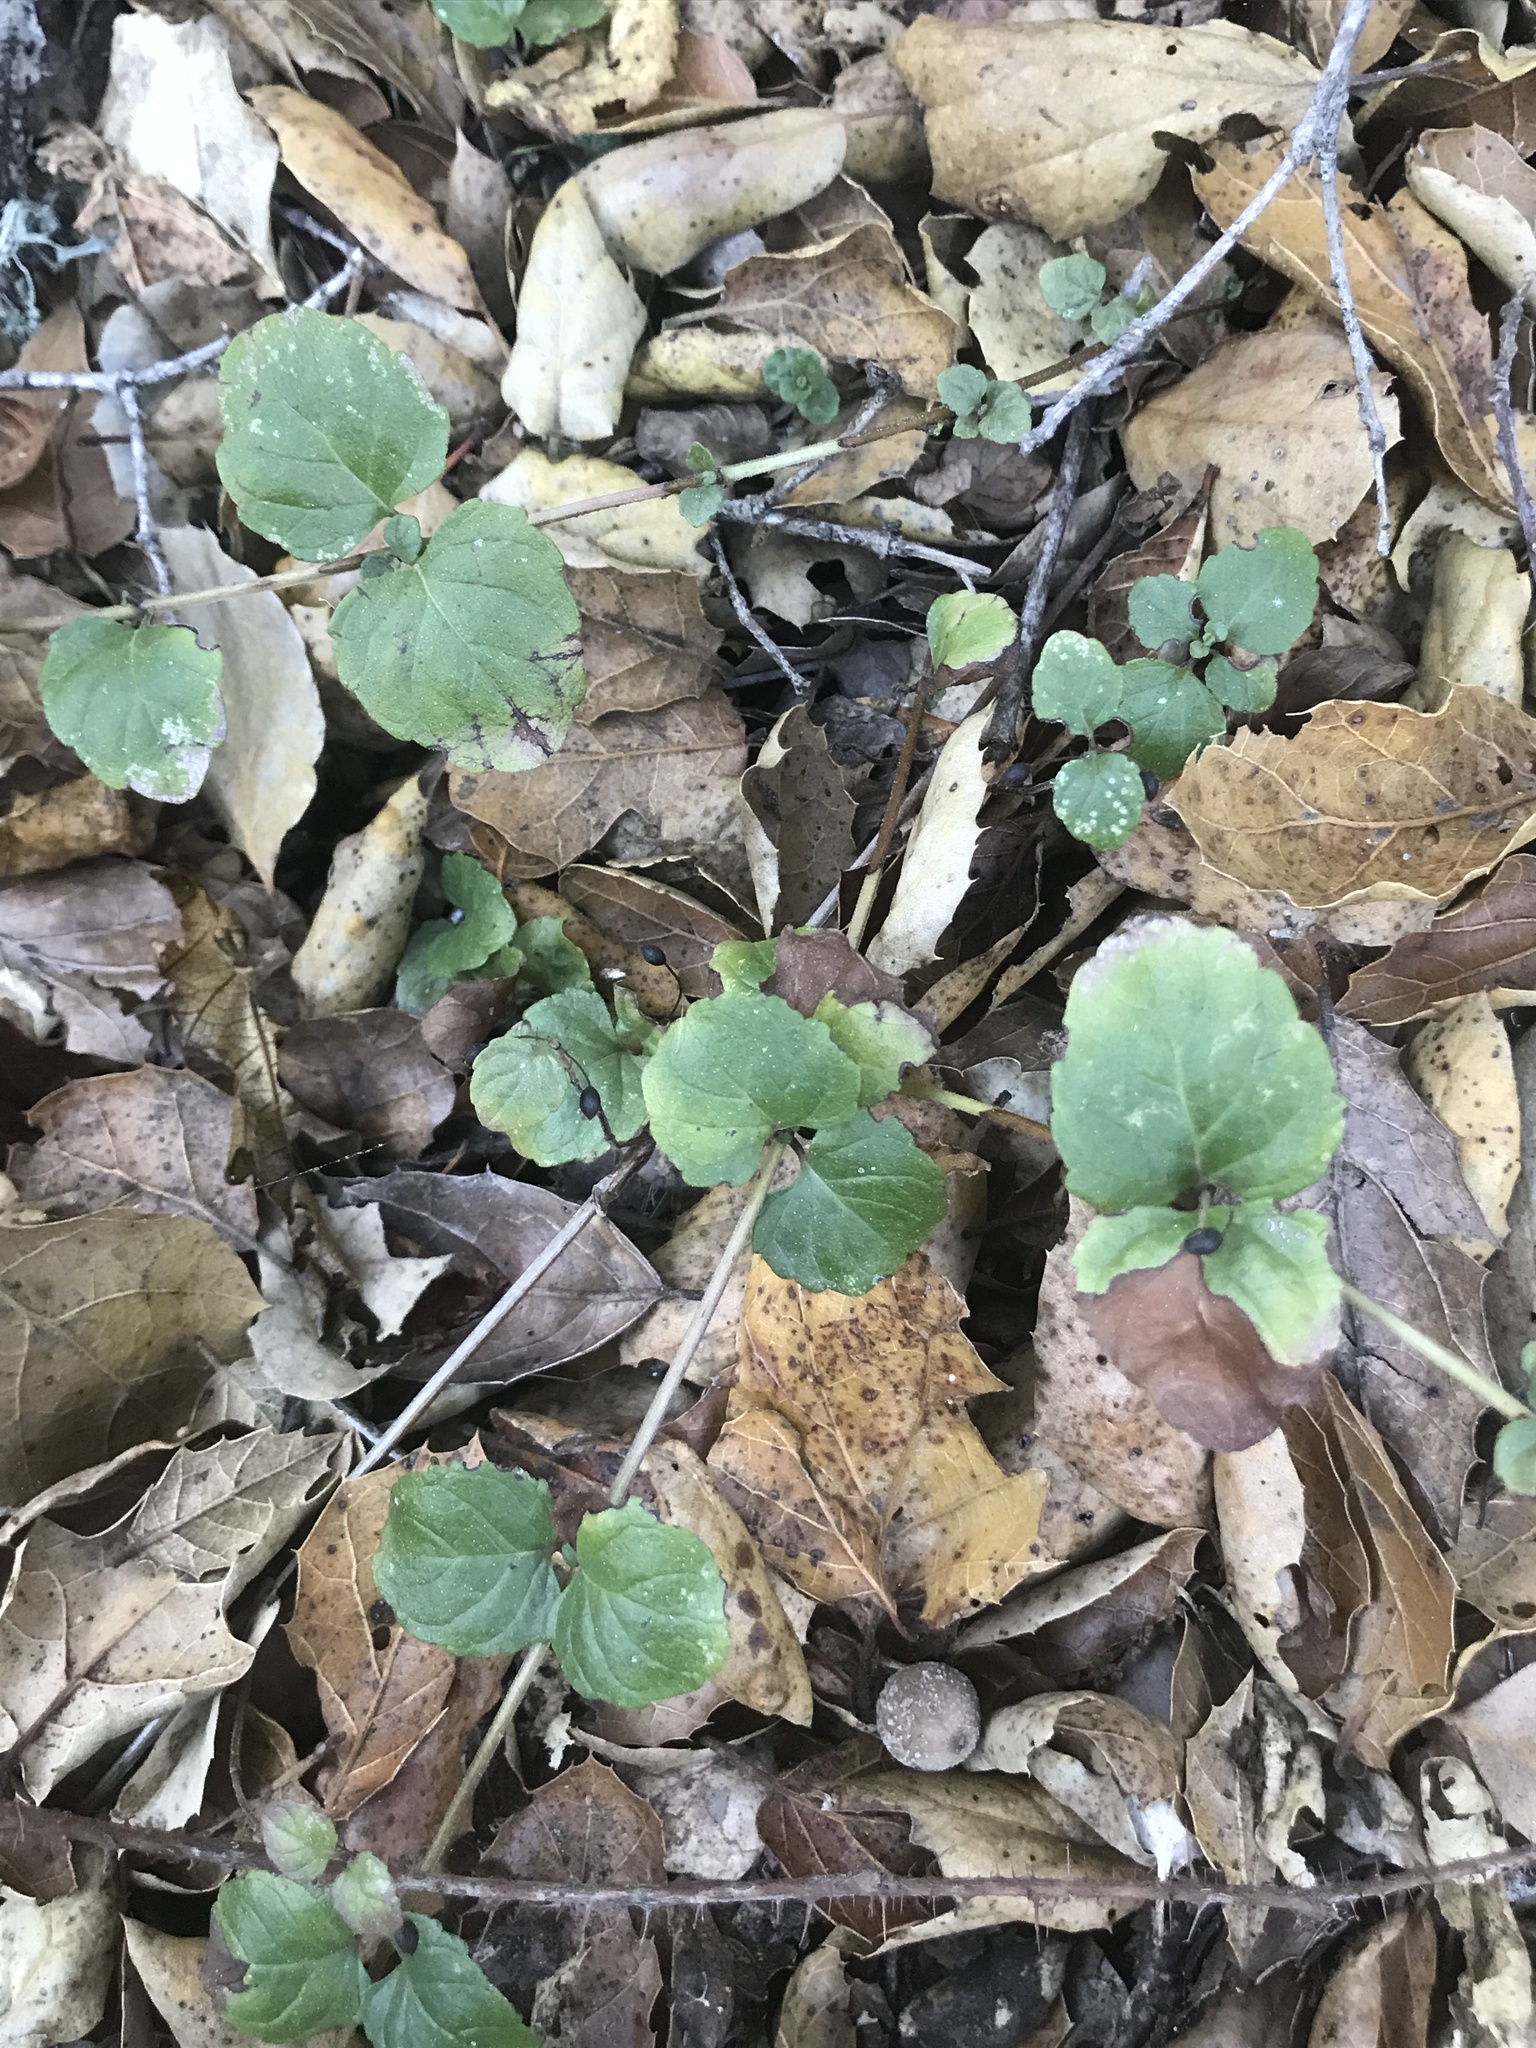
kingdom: Plantae
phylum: Tracheophyta
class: Magnoliopsida
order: Lamiales
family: Lamiaceae
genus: Micromeria
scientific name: Micromeria douglasii
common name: Yerba buena
